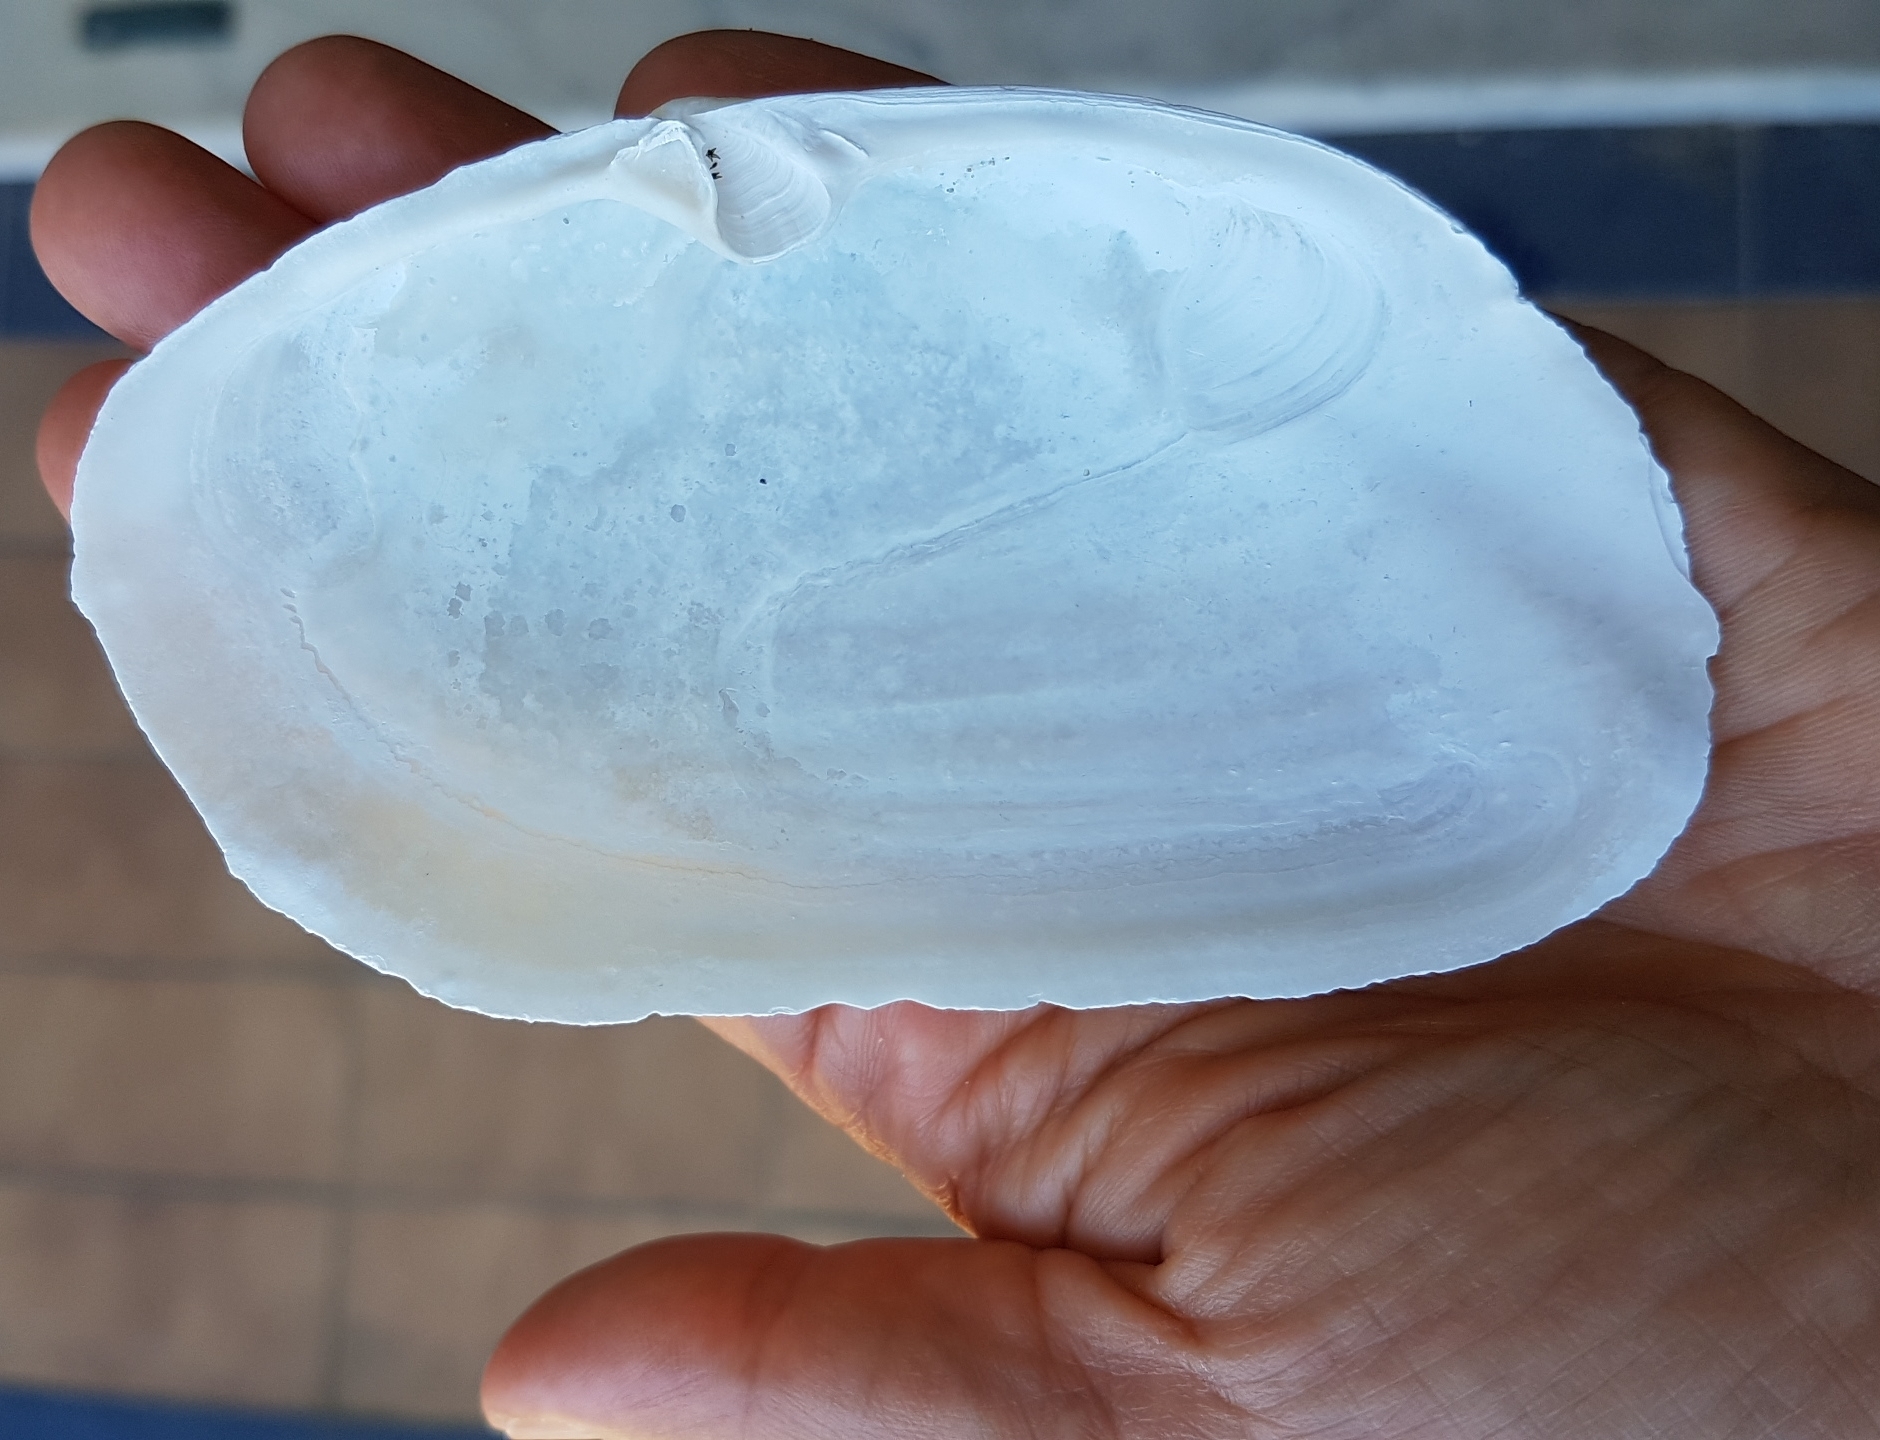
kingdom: Animalia
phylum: Mollusca
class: Bivalvia
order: Venerida
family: Mactridae
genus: Lutraria
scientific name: Lutraria lutraria
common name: Common otter shell
